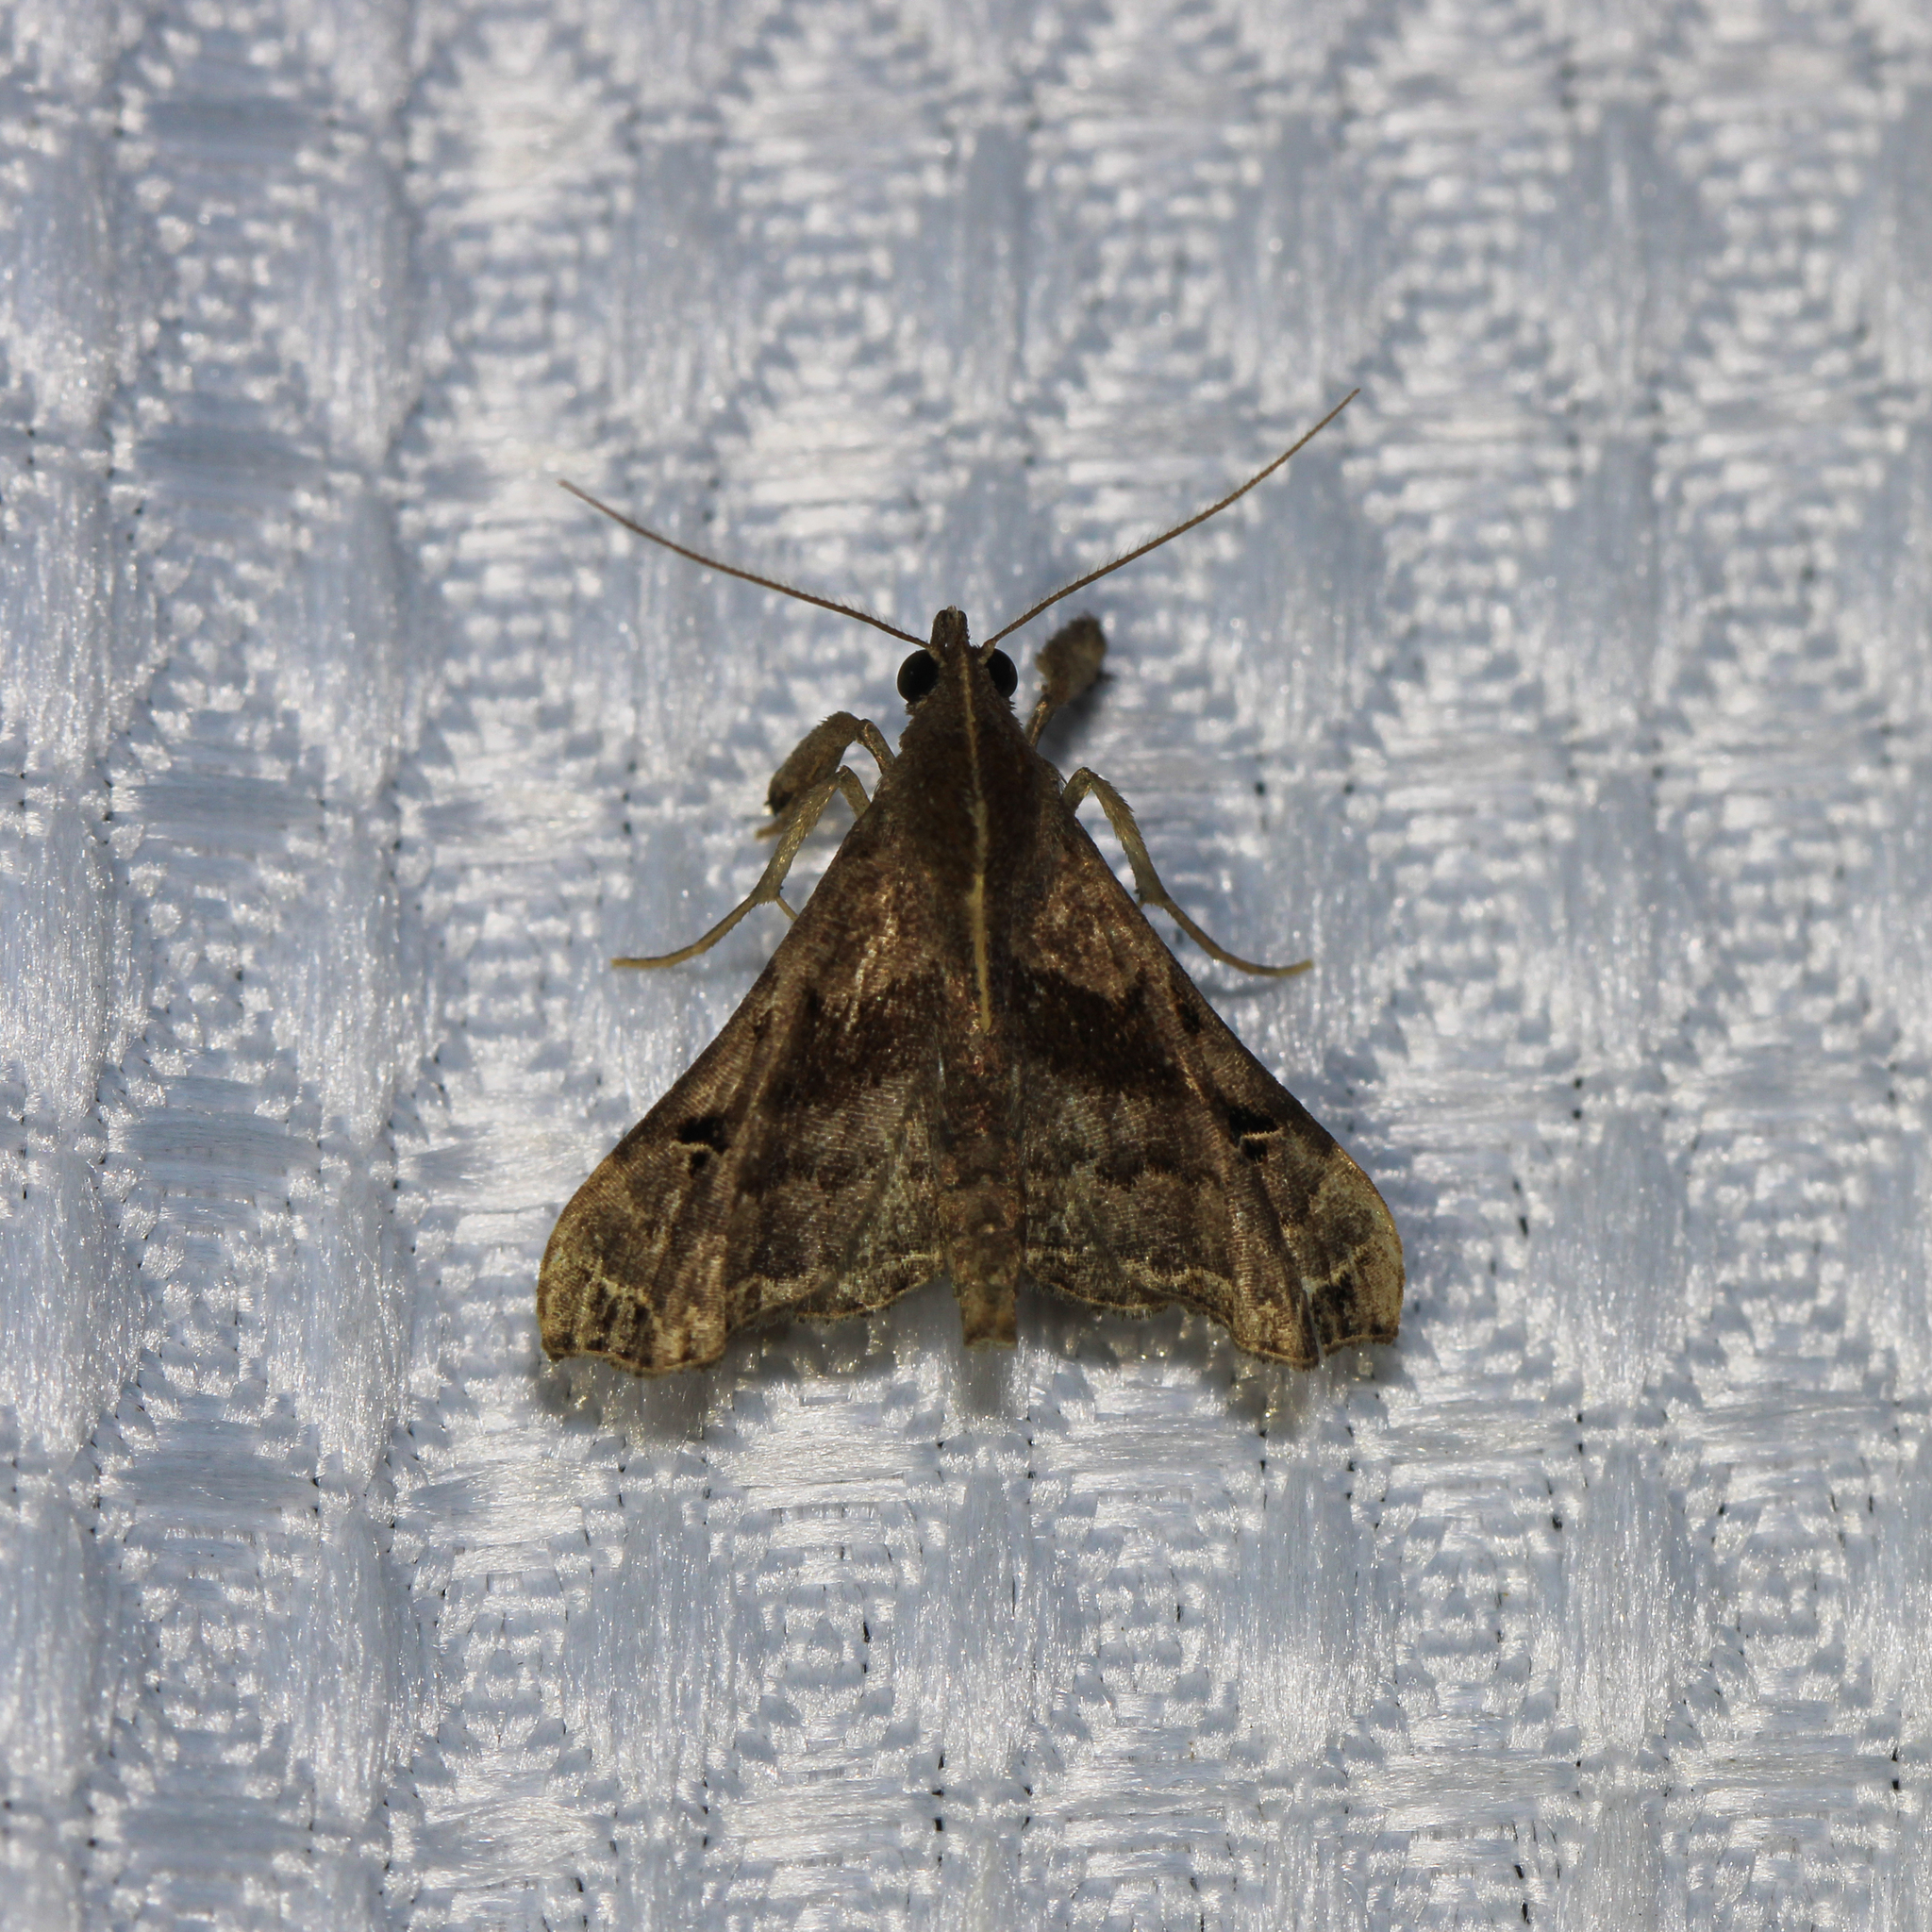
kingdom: Animalia
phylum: Arthropoda
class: Insecta
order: Lepidoptera
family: Erebidae
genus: Palthis
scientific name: Palthis asopialis
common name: Faint-spotted palthis moth
